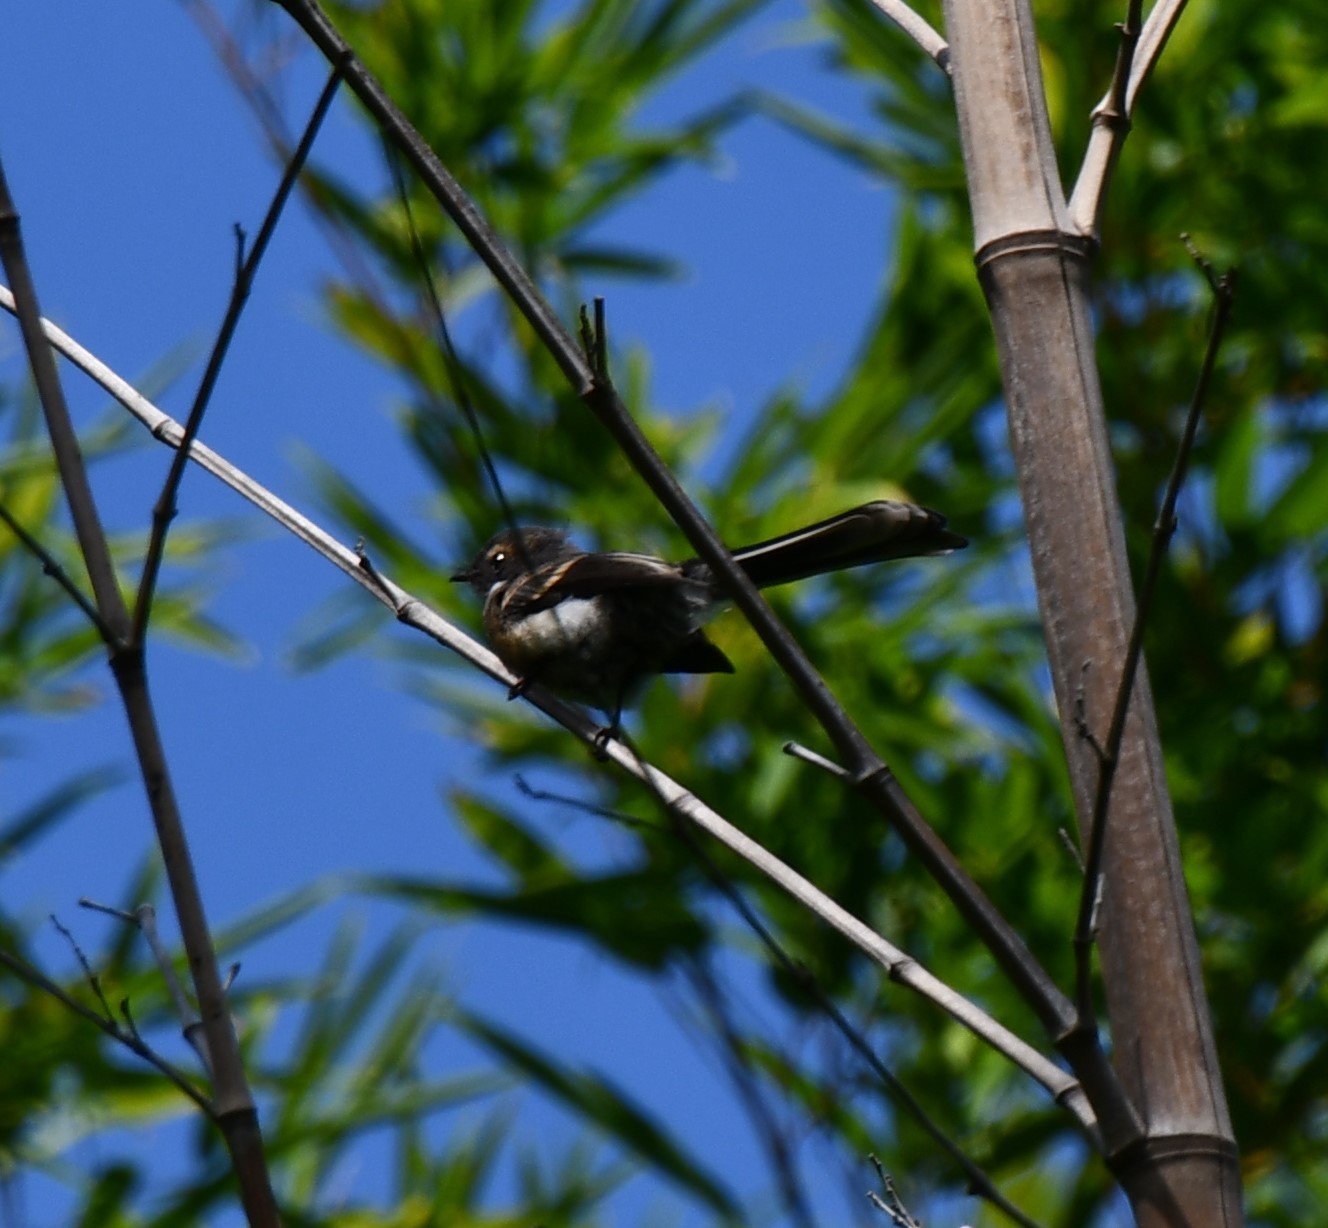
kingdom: Animalia
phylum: Chordata
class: Aves
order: Passeriformes
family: Rhipiduridae
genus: Rhipidura
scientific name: Rhipidura albiscapa
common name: Grey fantail
